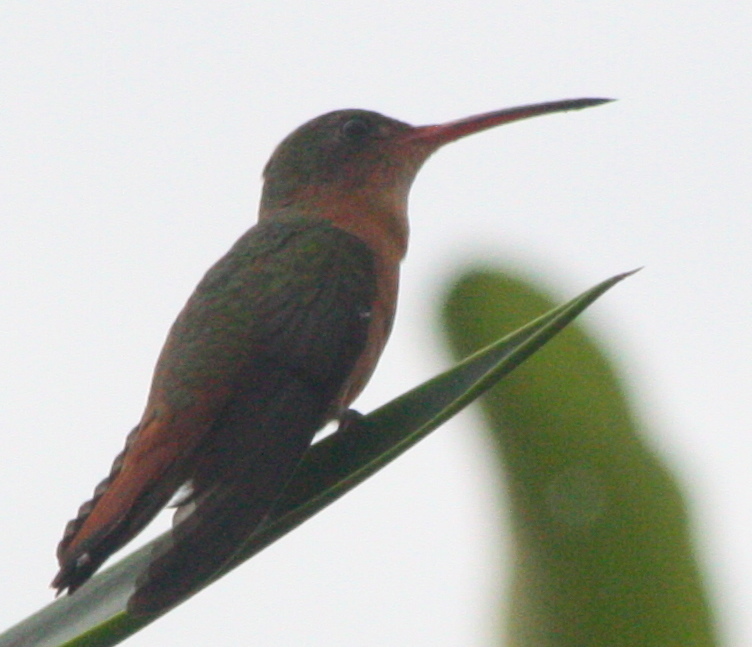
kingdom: Animalia
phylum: Chordata
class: Aves
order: Apodiformes
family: Trochilidae
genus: Amazilia
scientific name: Amazilia rutila
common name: Cinnamon hummingbird
